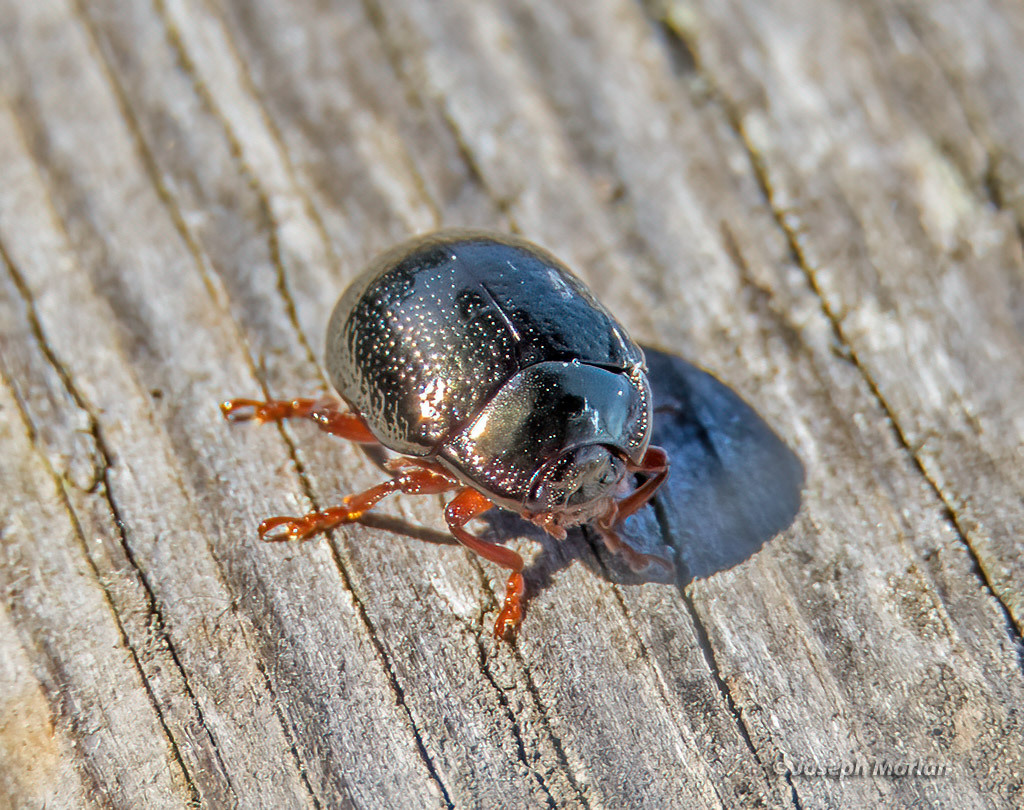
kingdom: Animalia
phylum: Arthropoda
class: Insecta
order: Coleoptera
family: Chrysomelidae
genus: Chrysolina
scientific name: Chrysolina bankii
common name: Leaf beetle
